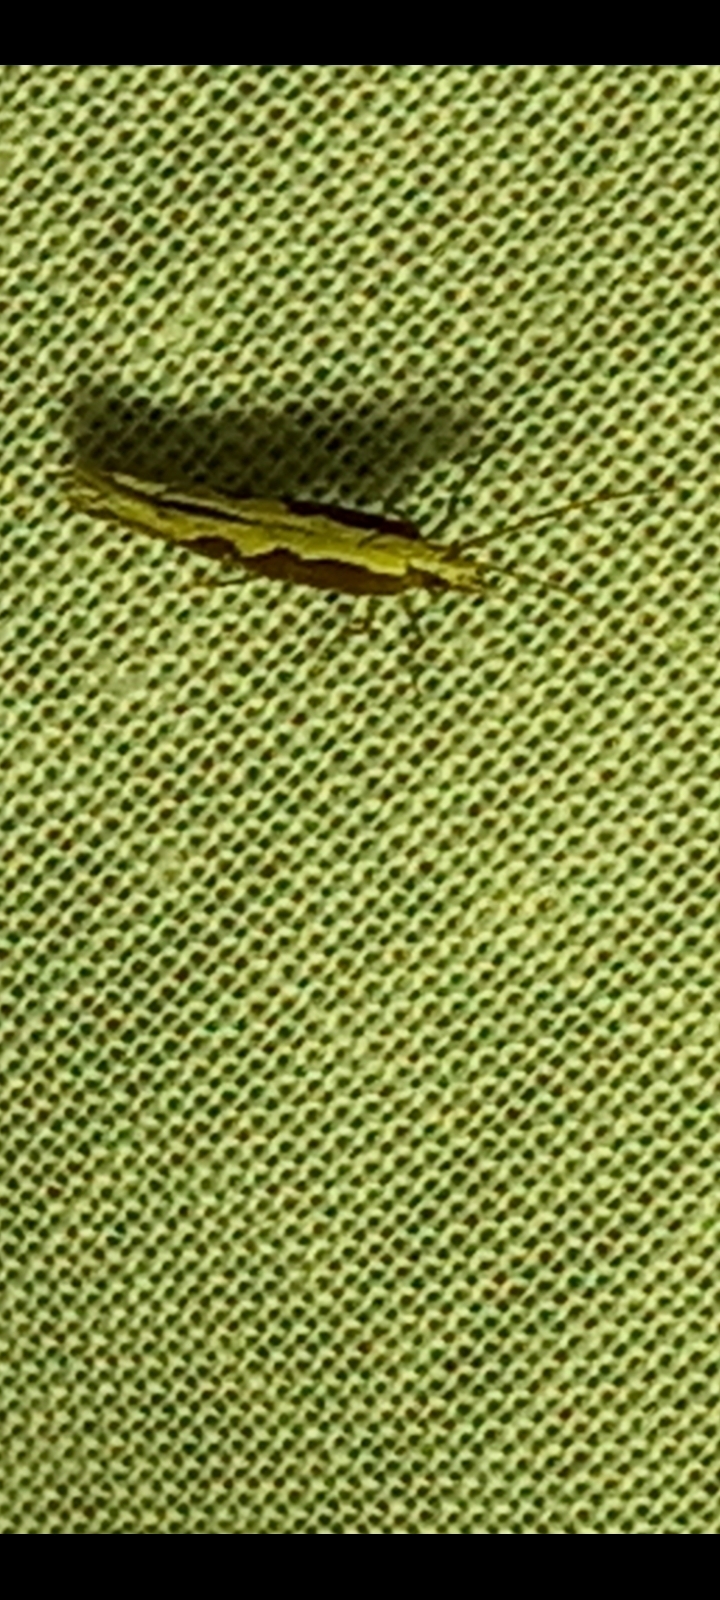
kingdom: Animalia
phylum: Arthropoda
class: Insecta
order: Lepidoptera
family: Plutellidae
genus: Plutella
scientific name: Plutella xylostella
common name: Diamond-back moth
